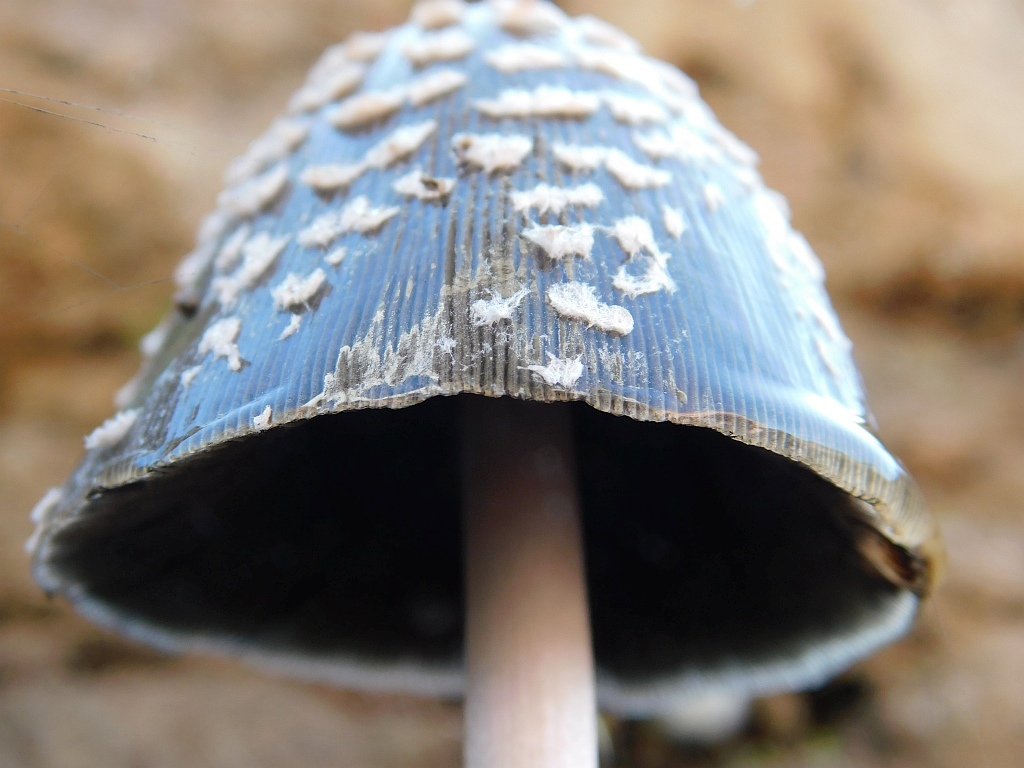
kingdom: Fungi
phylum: Basidiomycota
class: Agaricomycetes
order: Agaricales
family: Psathyrellaceae
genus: Coprinopsis
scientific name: Coprinopsis picacea
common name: Magpie inkcap
